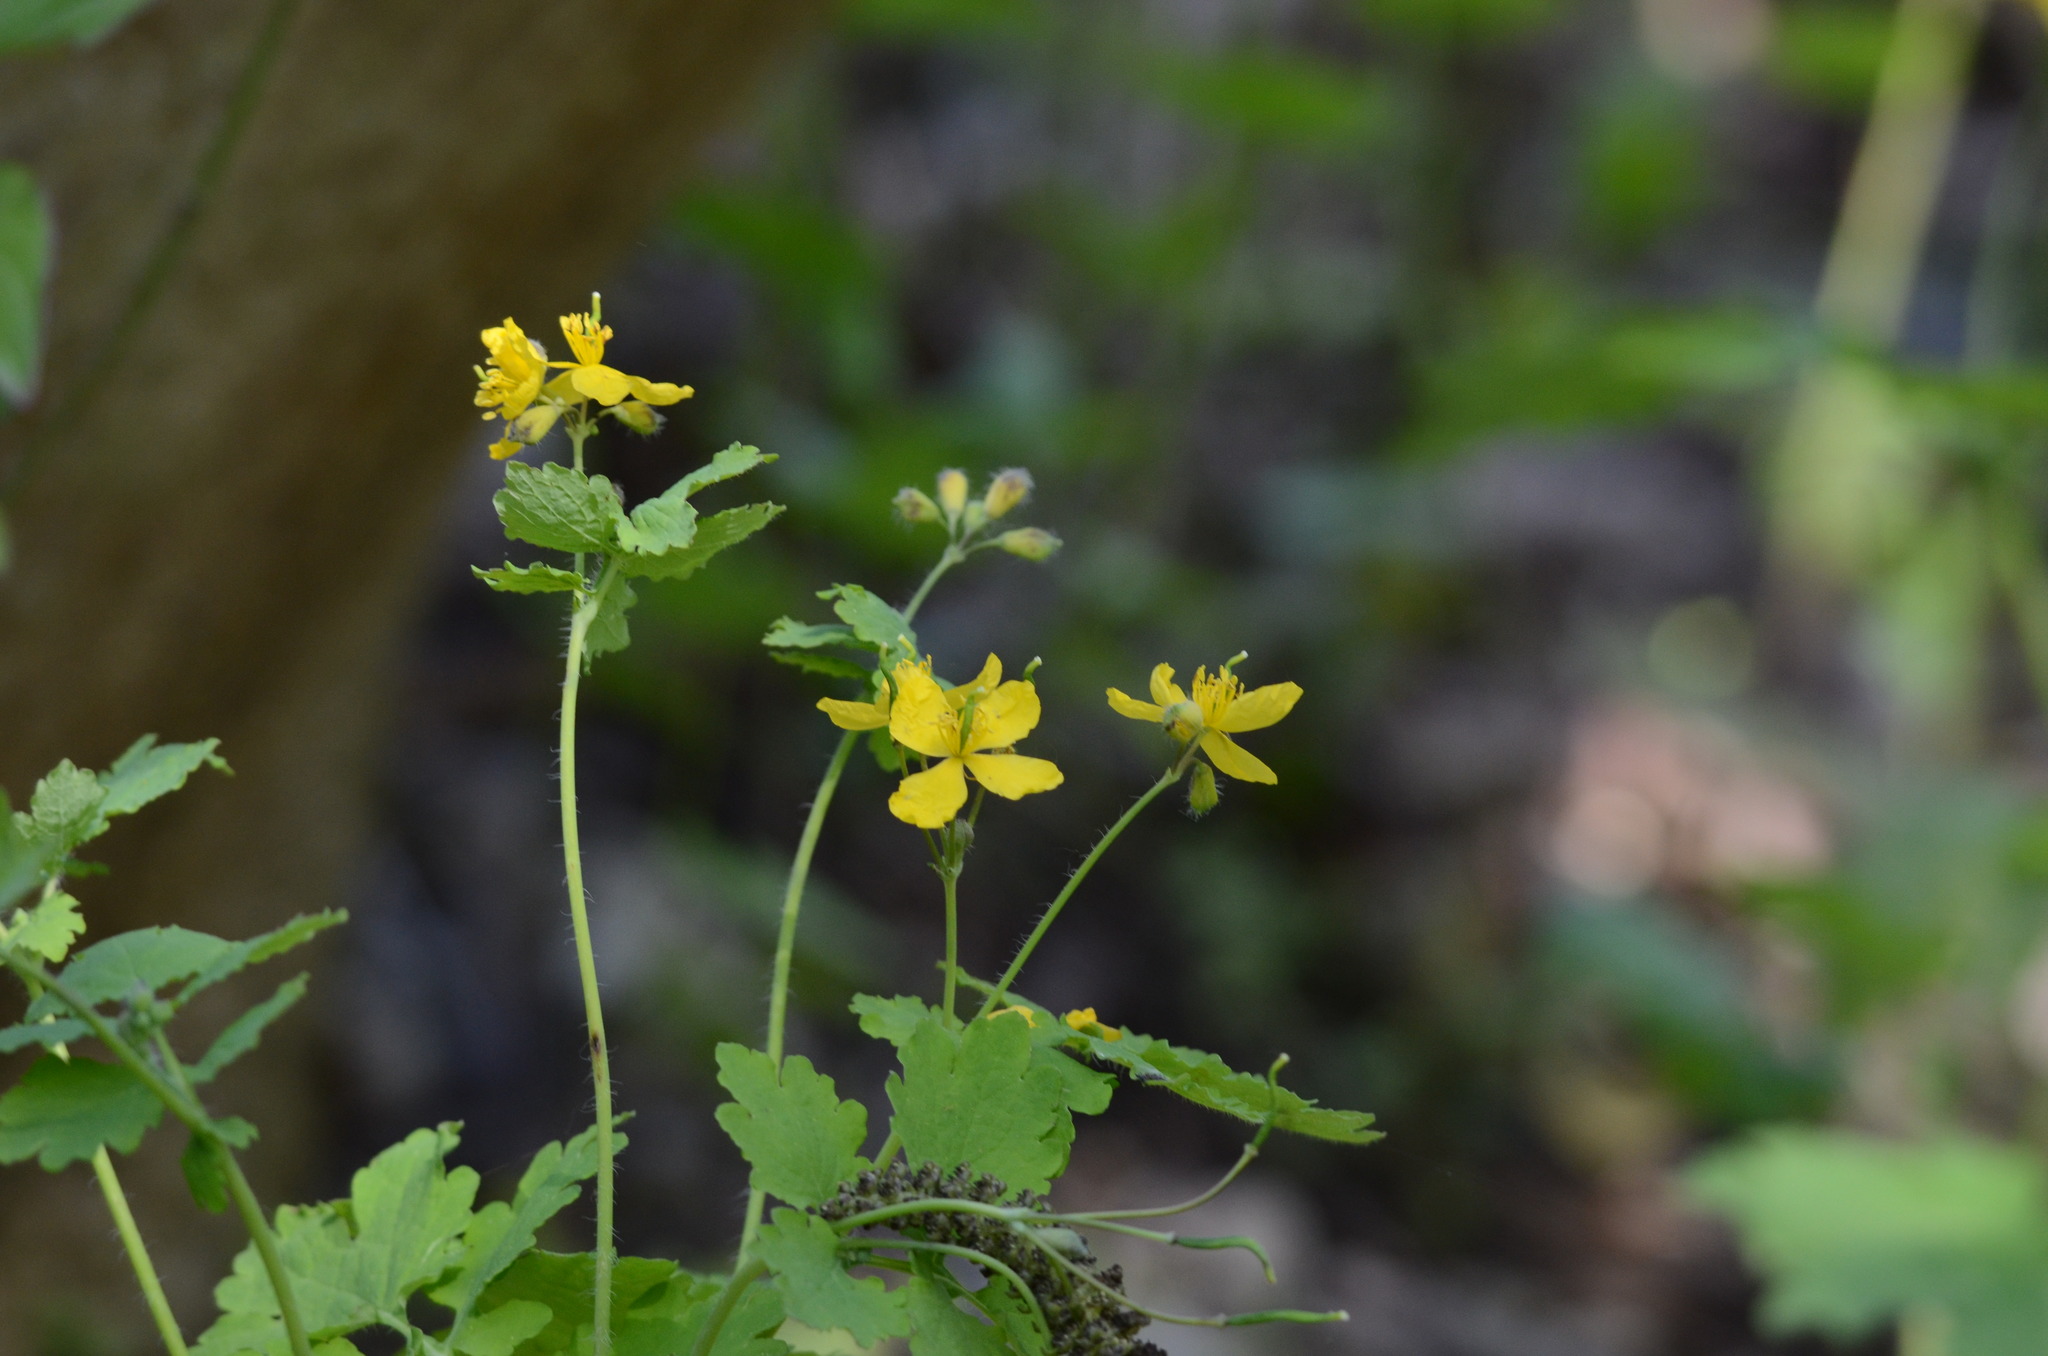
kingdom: Plantae
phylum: Tracheophyta
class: Magnoliopsida
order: Ranunculales
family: Papaveraceae
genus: Chelidonium
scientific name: Chelidonium majus
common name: Greater celandine
